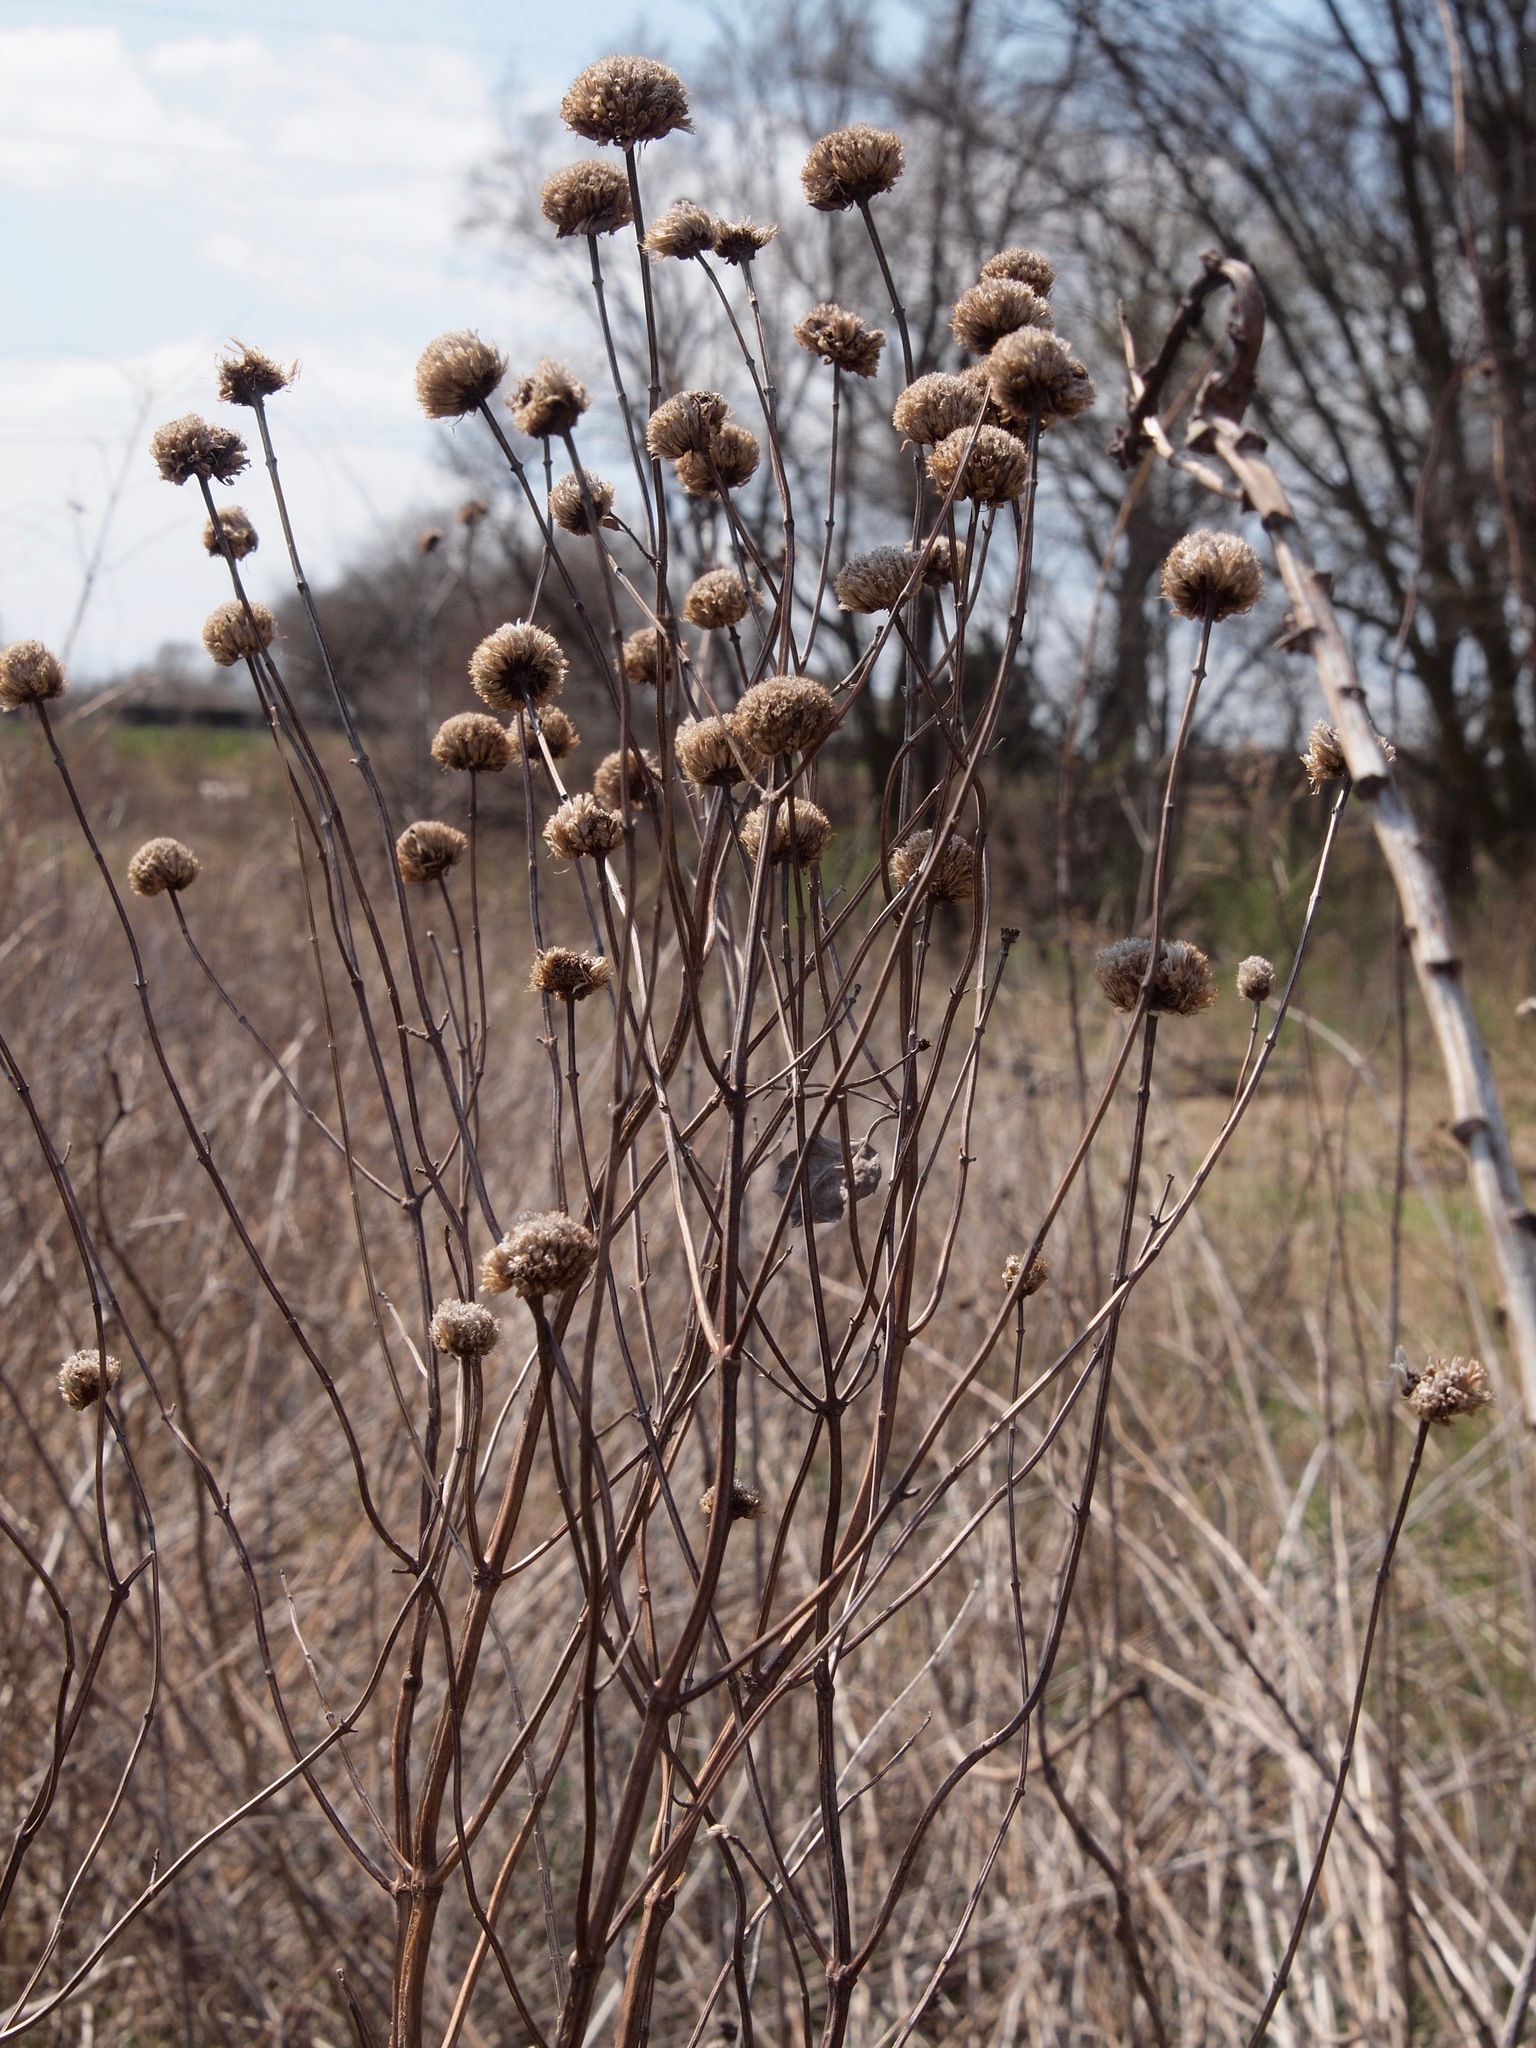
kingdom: Plantae
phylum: Tracheophyta
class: Magnoliopsida
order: Lamiales
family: Lamiaceae
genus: Monarda
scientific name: Monarda fistulosa
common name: Purple beebalm
